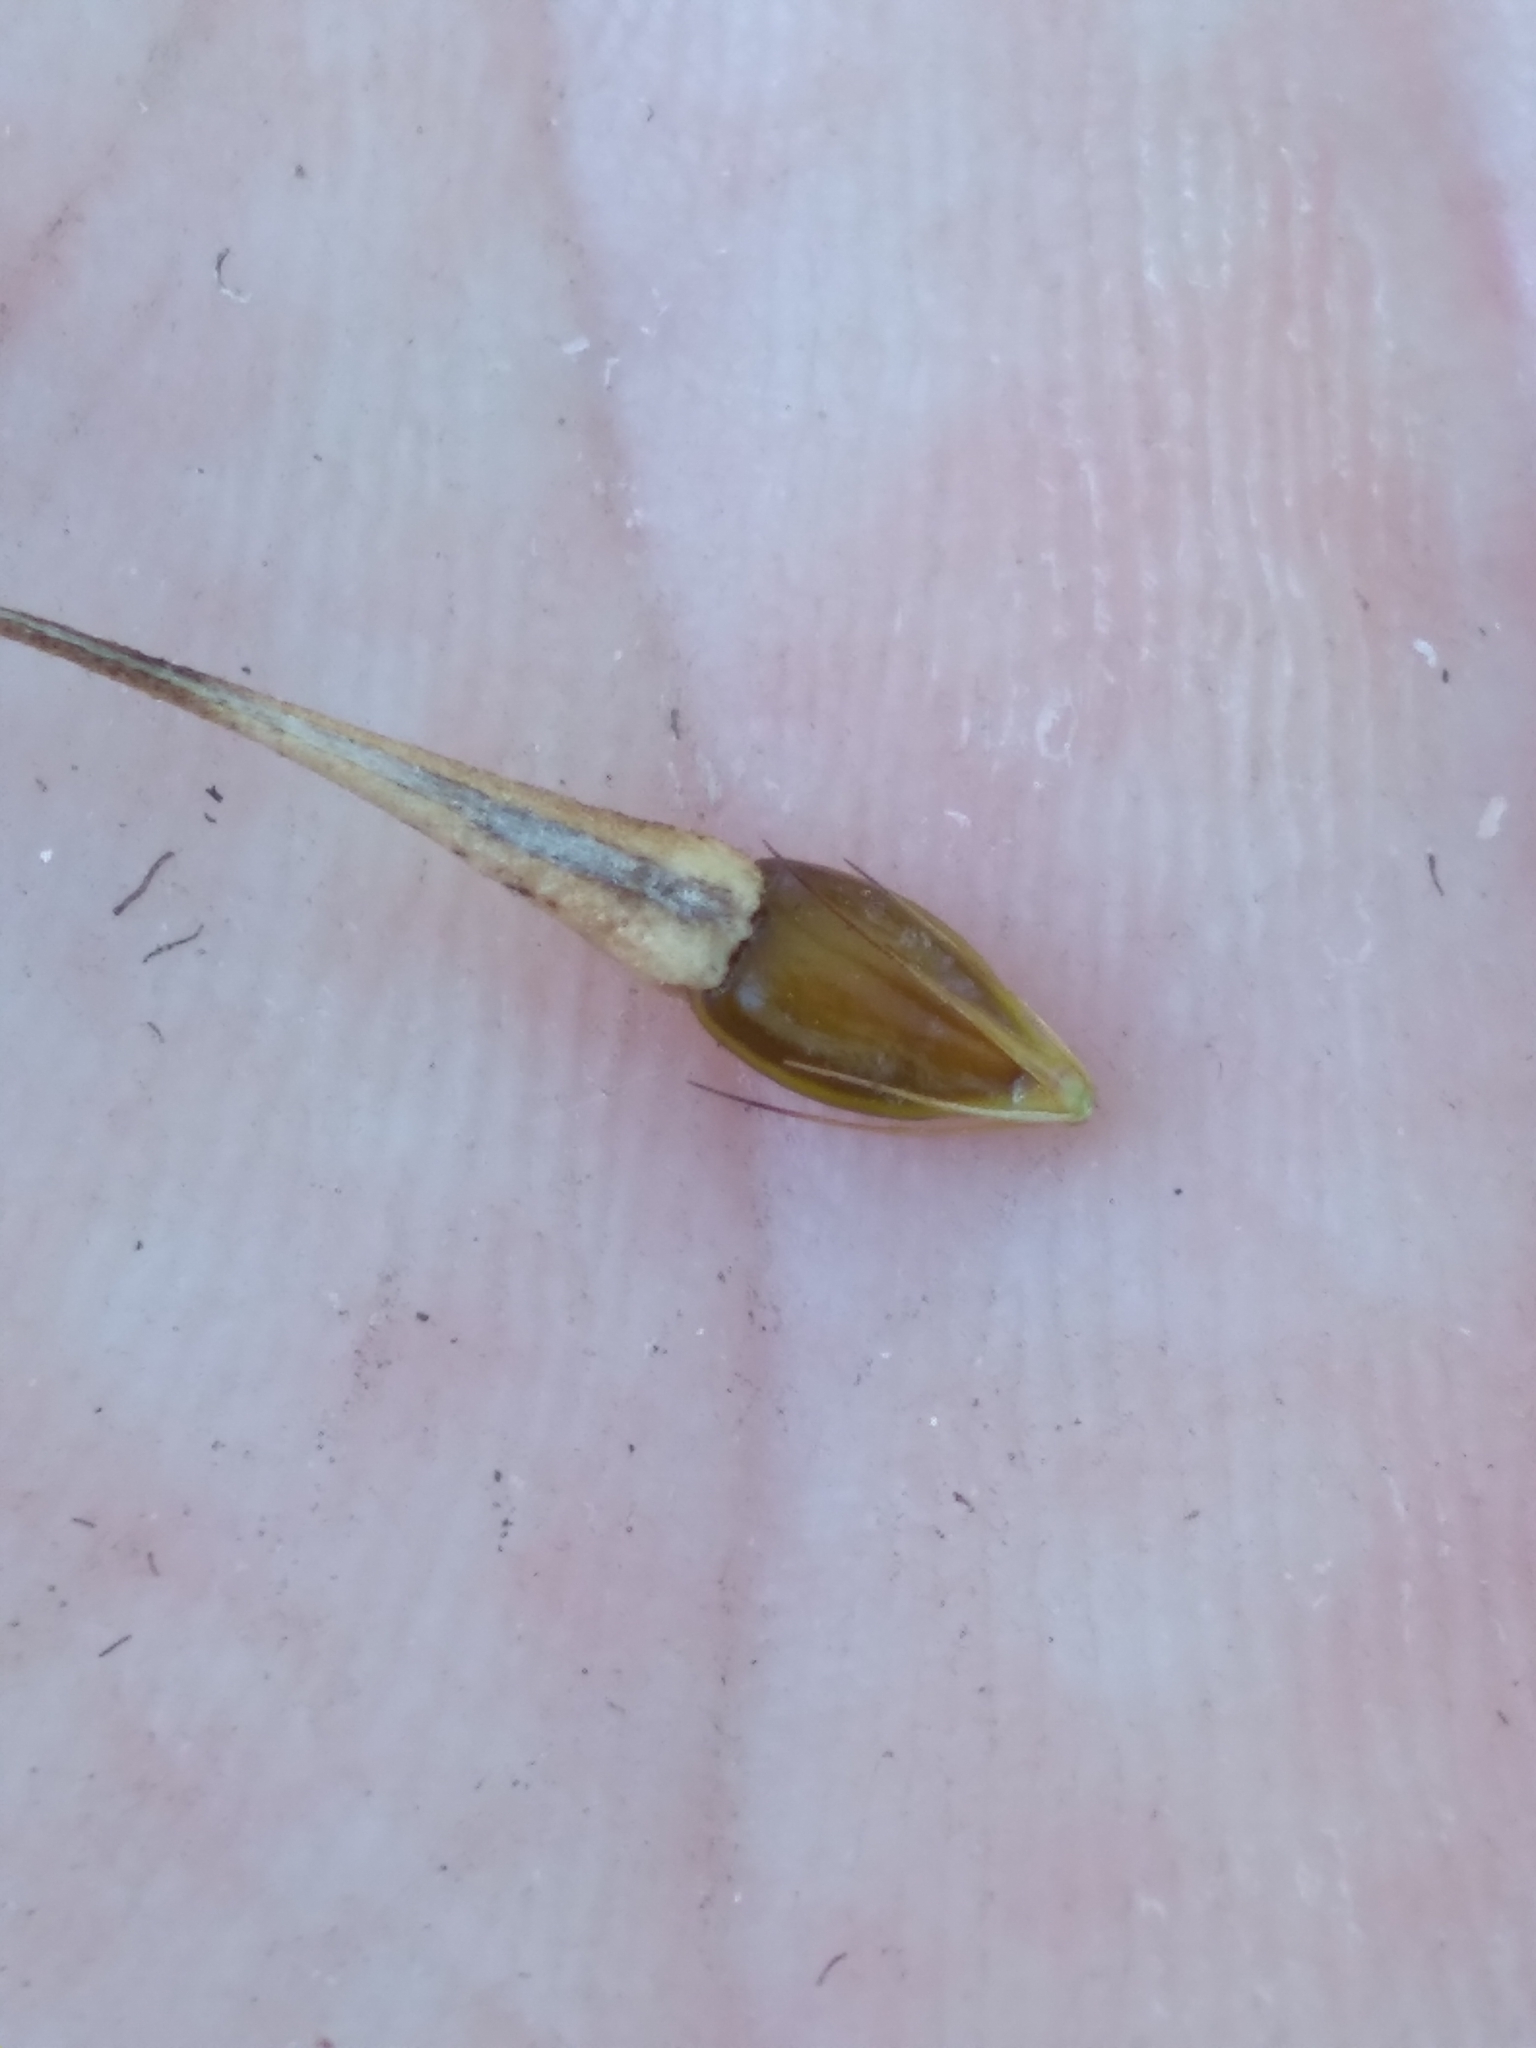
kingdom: Plantae
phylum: Tracheophyta
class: Liliopsida
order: Poales
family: Cyperaceae
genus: Rhynchospora
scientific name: Rhynchospora careyana
